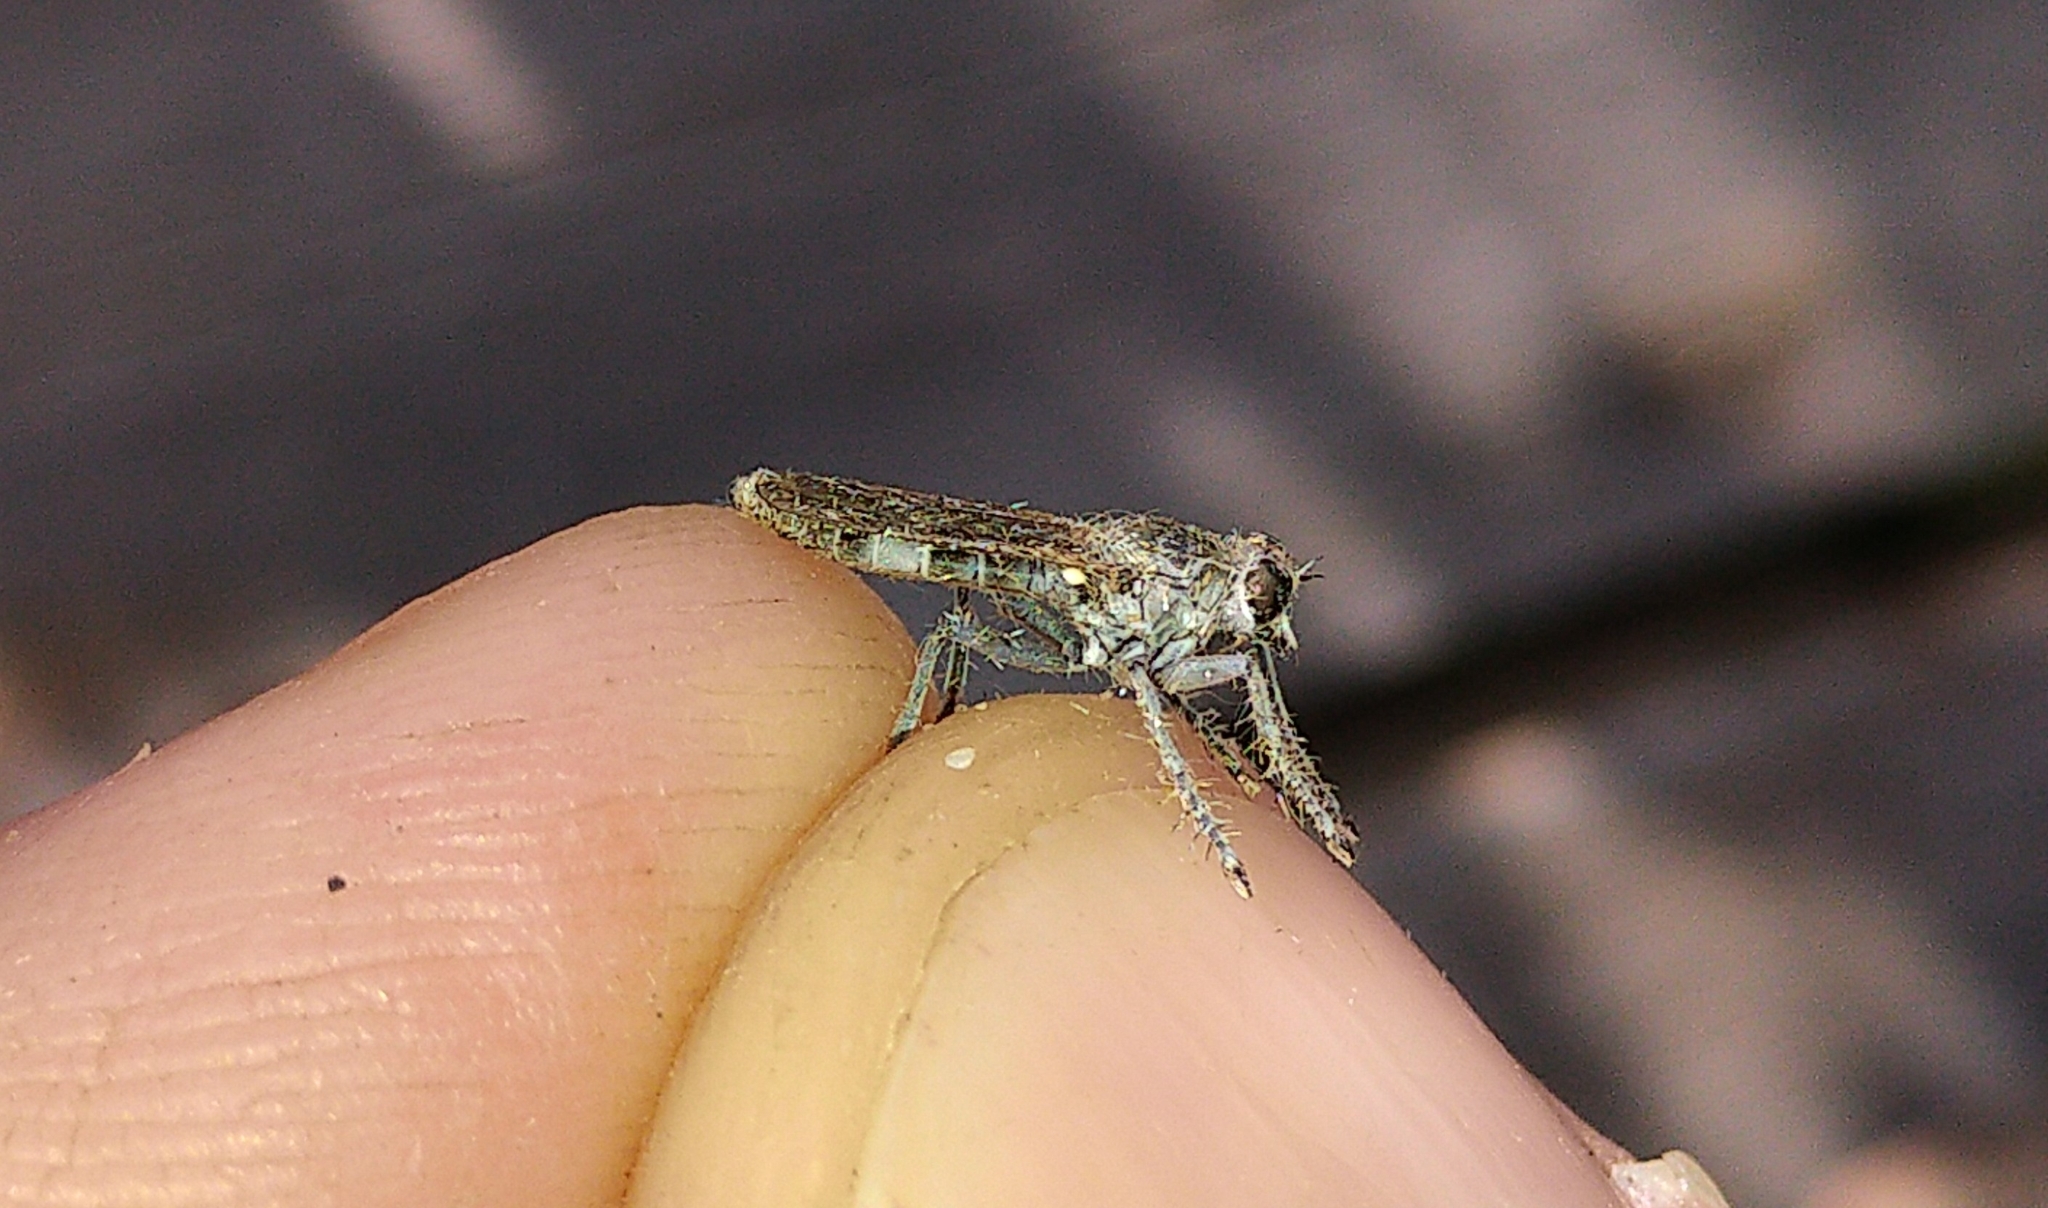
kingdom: Animalia
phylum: Arthropoda
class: Insecta
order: Diptera
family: Asilidae
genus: Stichopogon
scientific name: Stichopogon trifasciatus
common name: Three-banded robber fly
